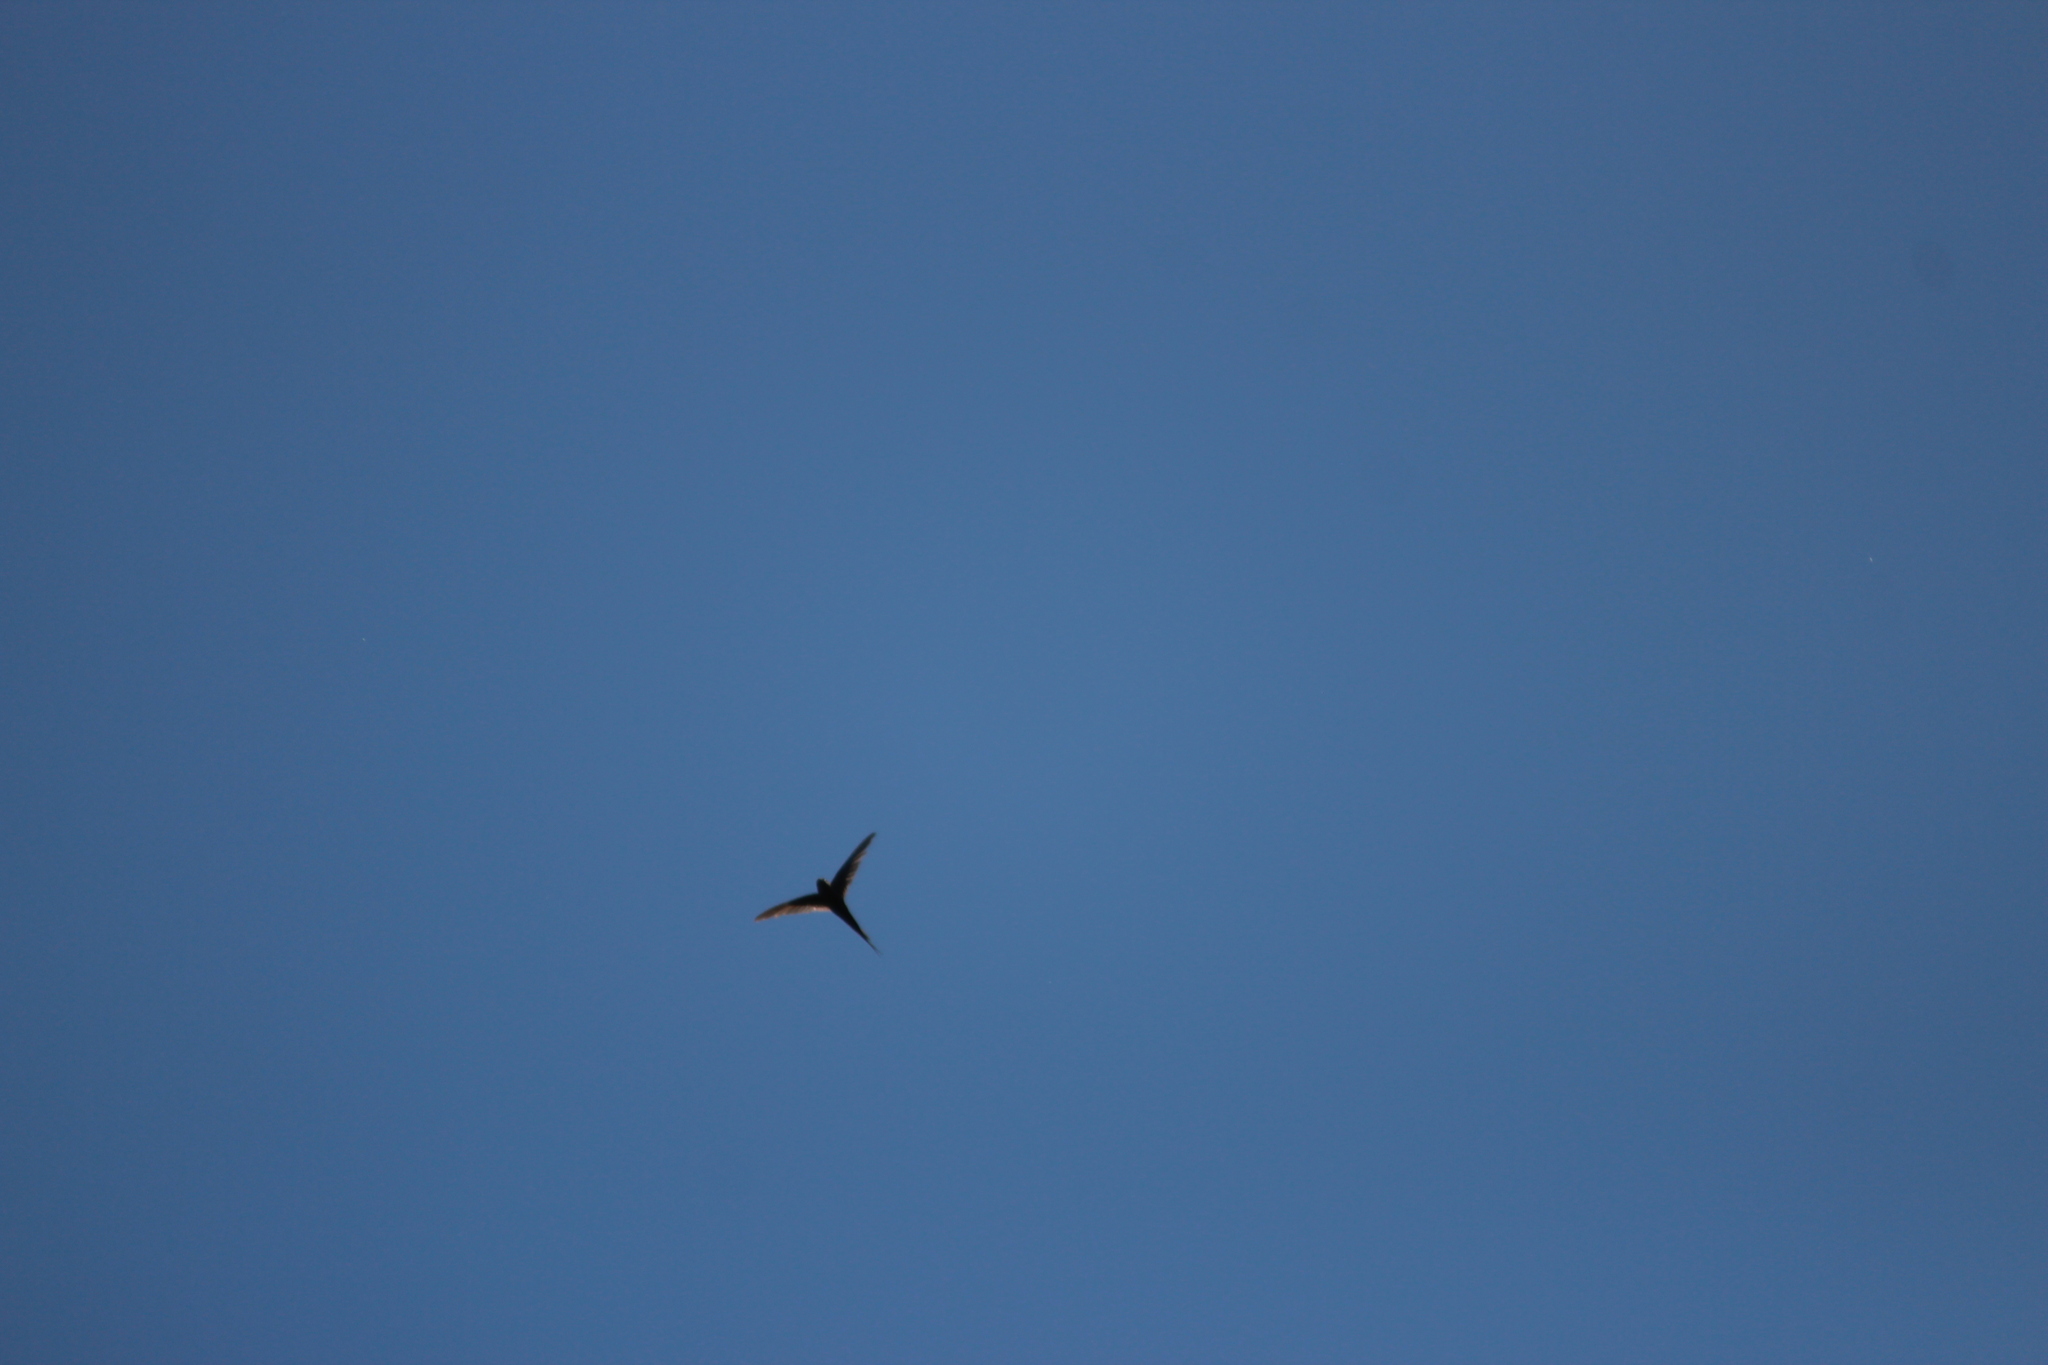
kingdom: Animalia
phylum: Chordata
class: Aves
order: Apodiformes
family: Apodidae
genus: Cypsiurus
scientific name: Cypsiurus parvus
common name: African palm swift
